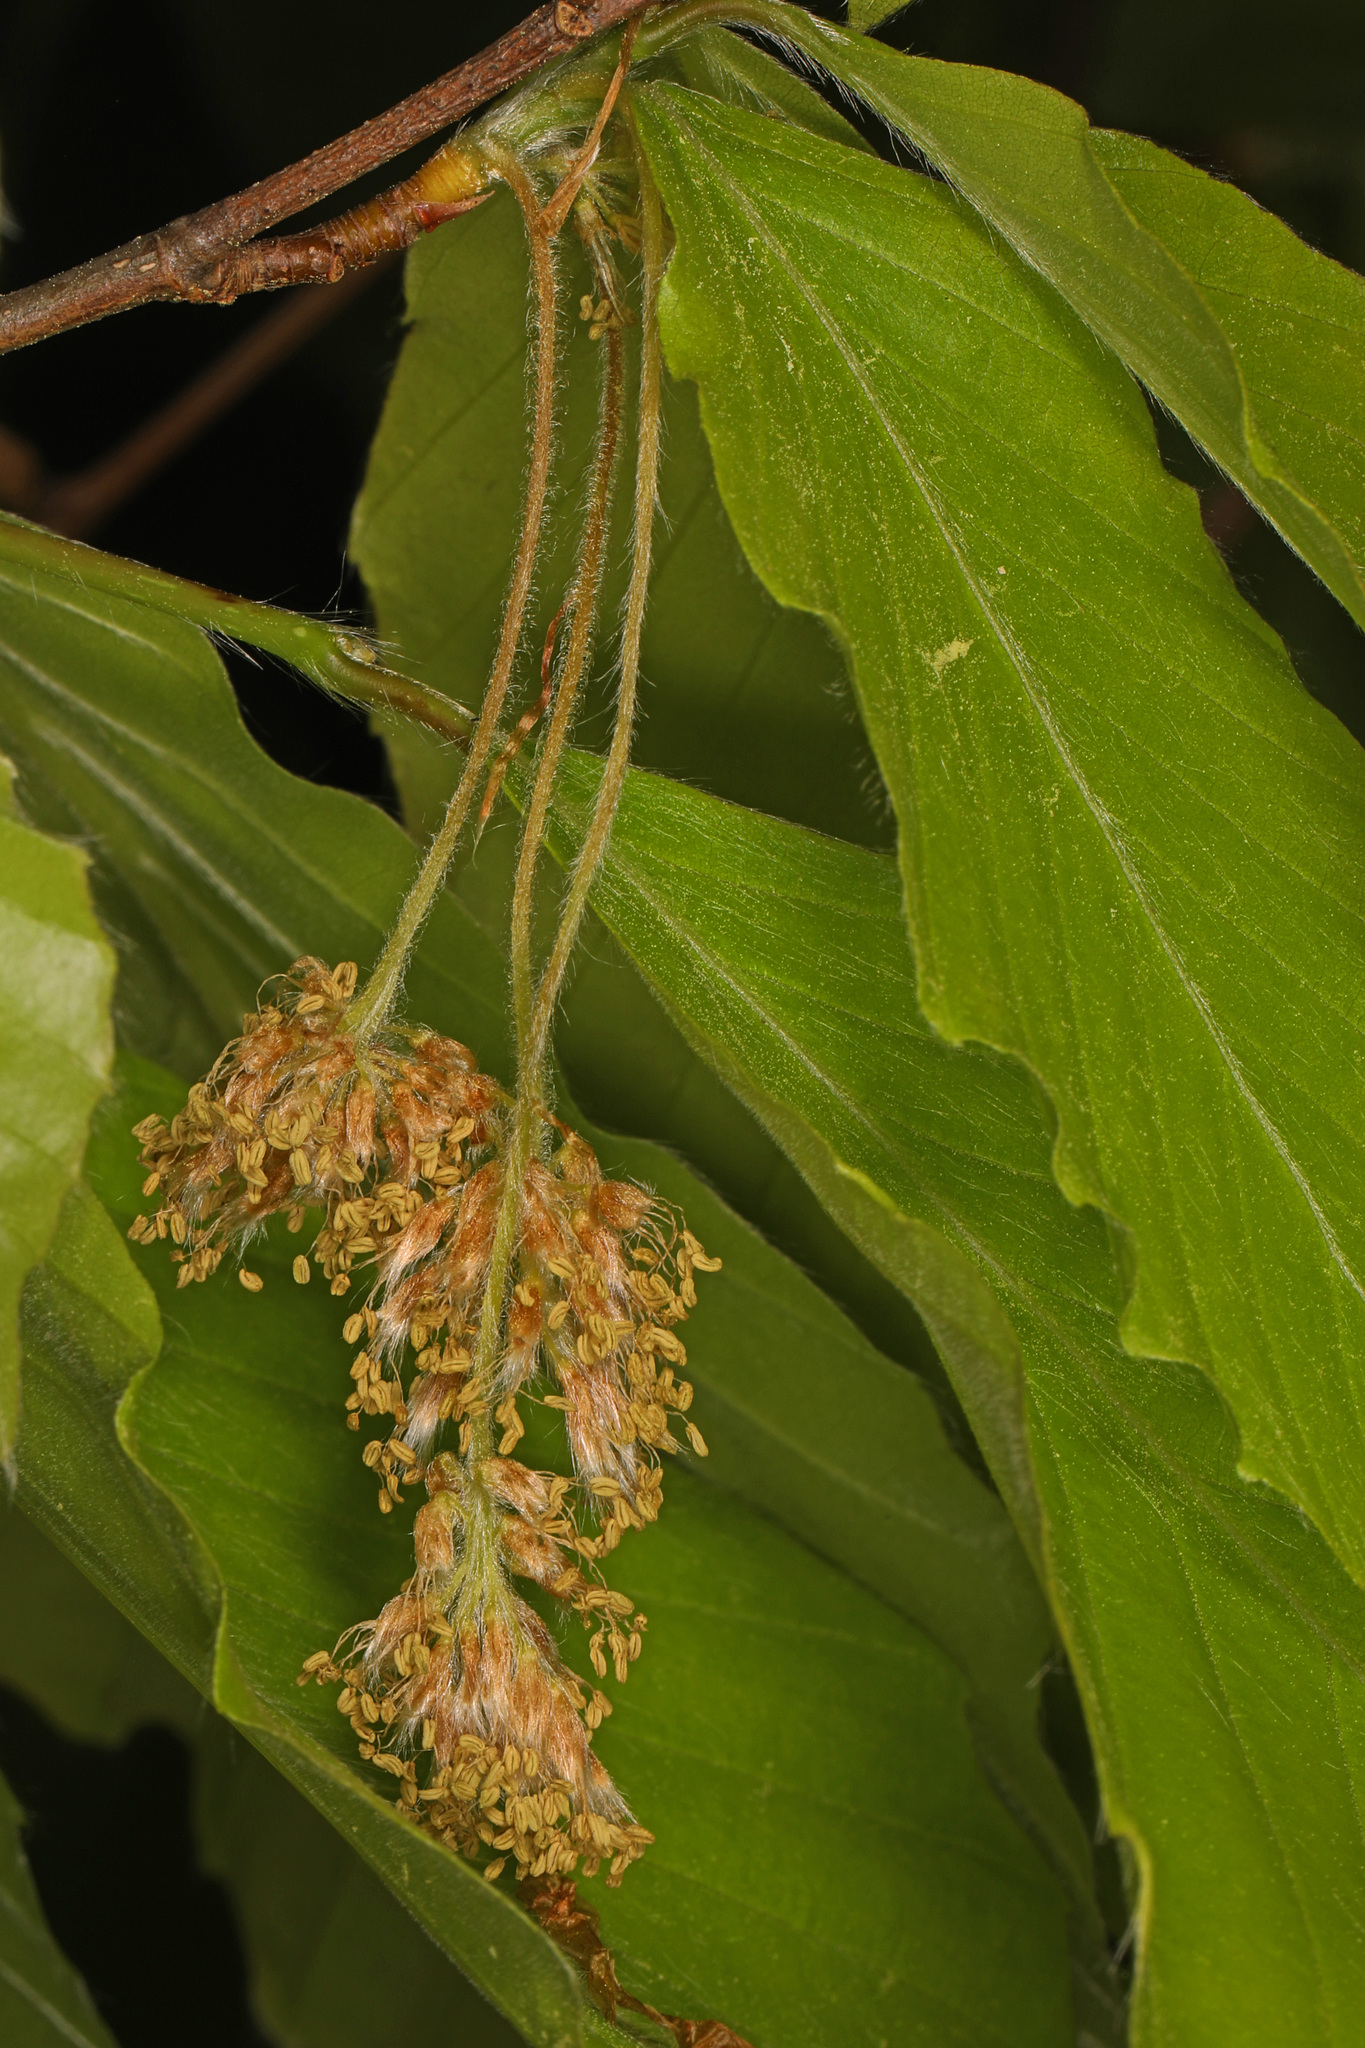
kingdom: Plantae
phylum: Tracheophyta
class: Magnoliopsida
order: Fagales
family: Fagaceae
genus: Fagus
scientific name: Fagus grandifolia
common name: American beech
